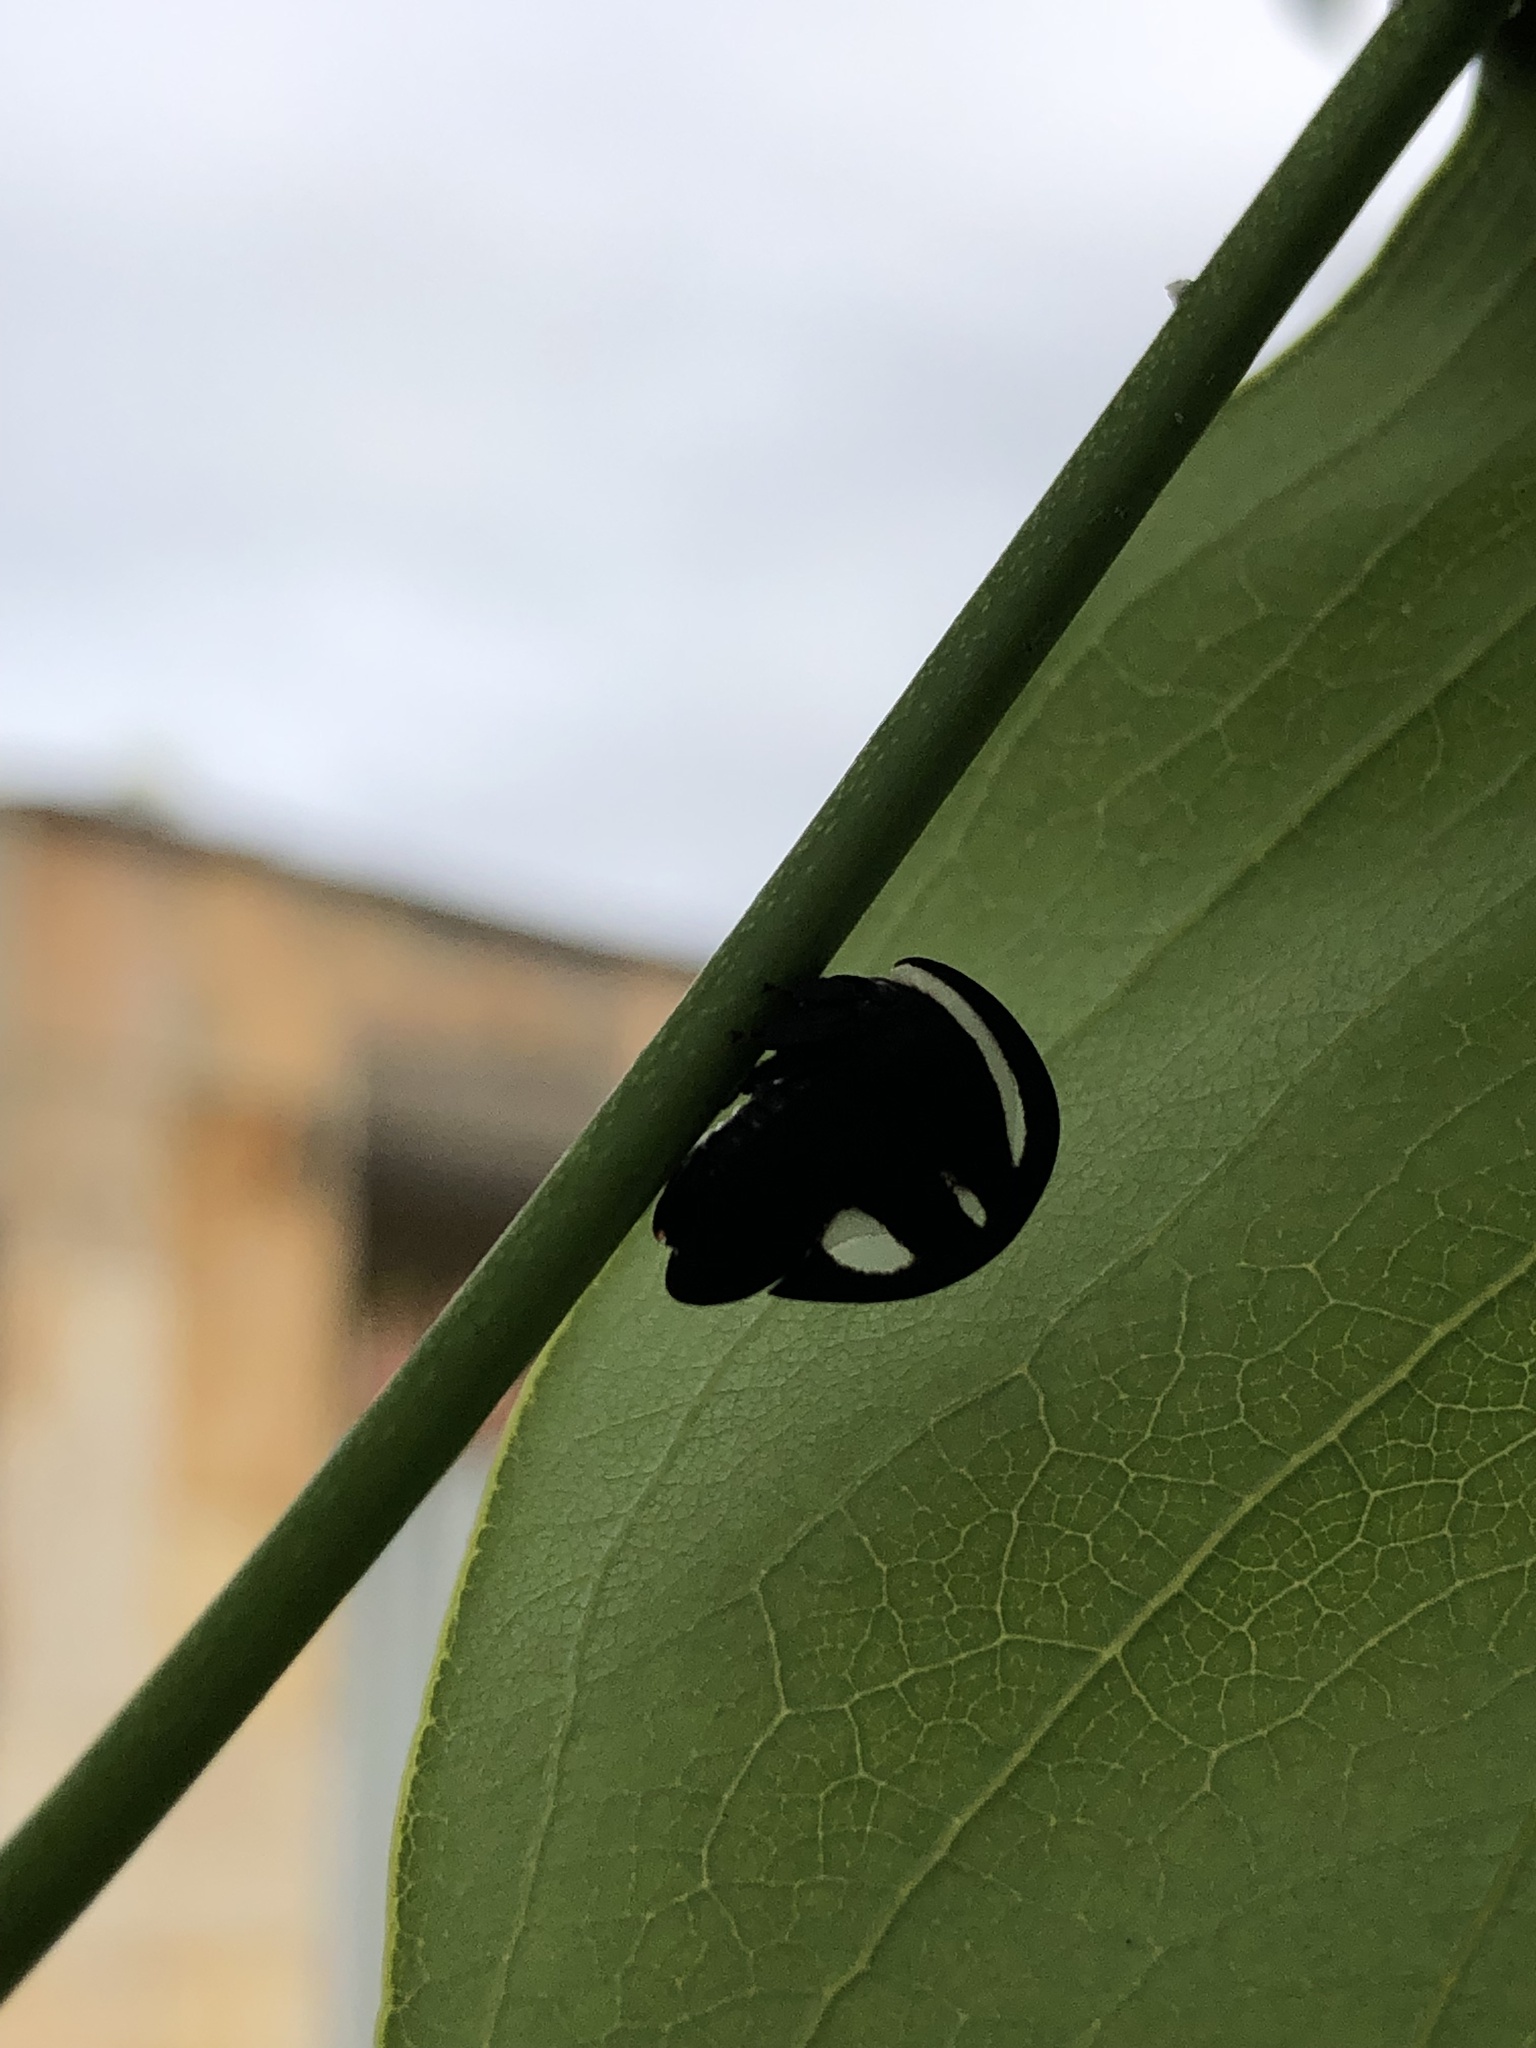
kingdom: Animalia
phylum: Arthropoda
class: Insecta
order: Hemiptera
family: Membracidae
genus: Membracis
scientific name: Membracis
